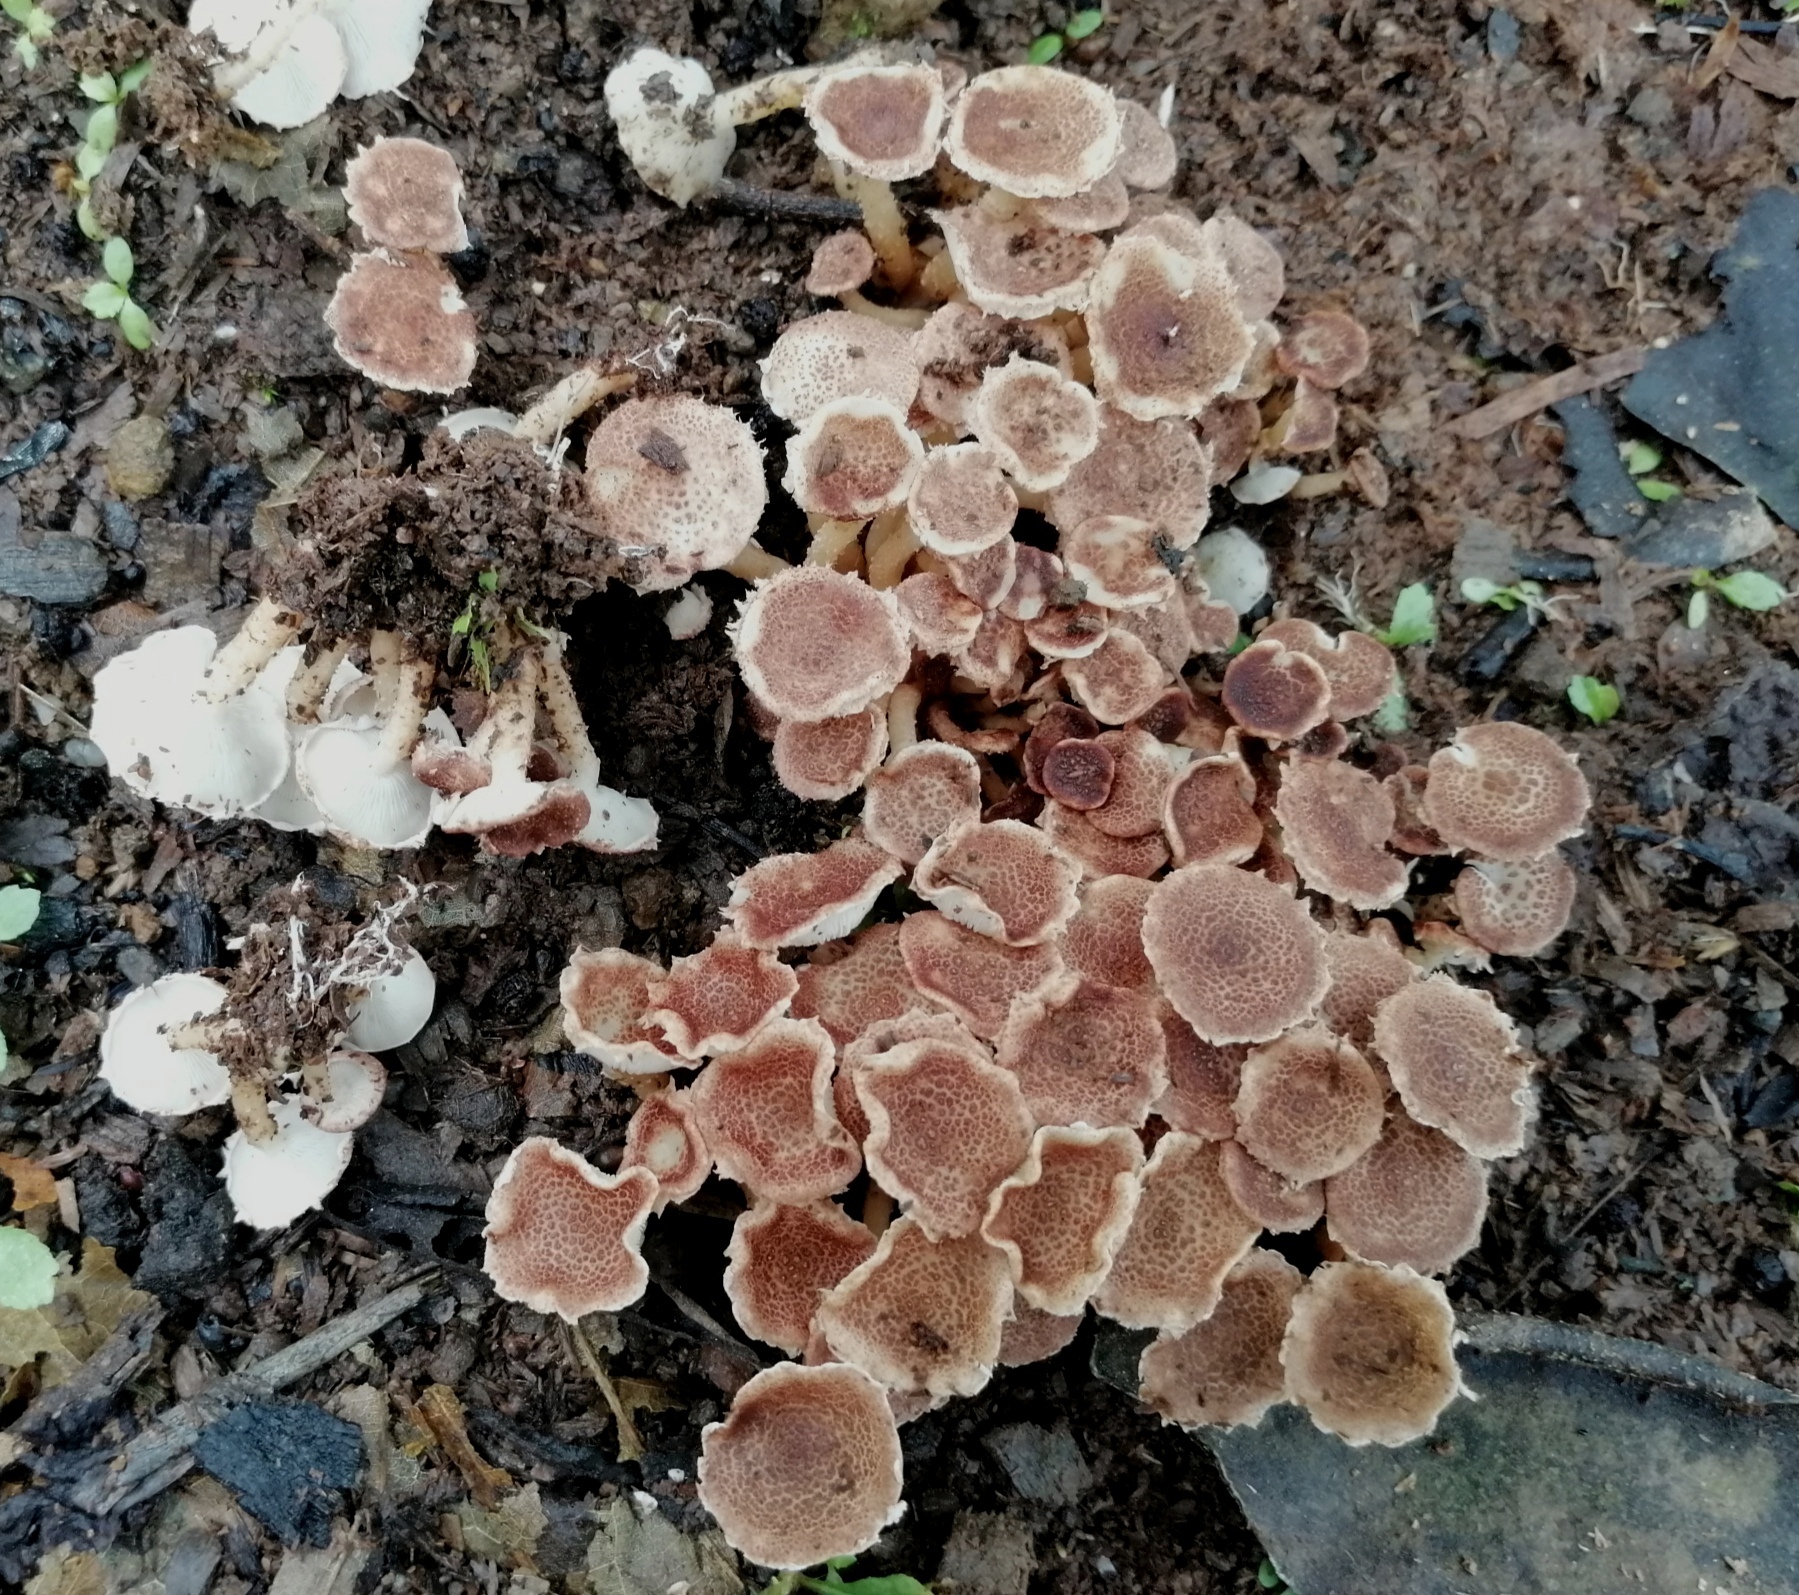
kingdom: Fungi
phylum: Basidiomycota
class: Agaricomycetes
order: Agaricales
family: Agaricaceae
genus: Ripartitella
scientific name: Ripartitella brasiliensis
